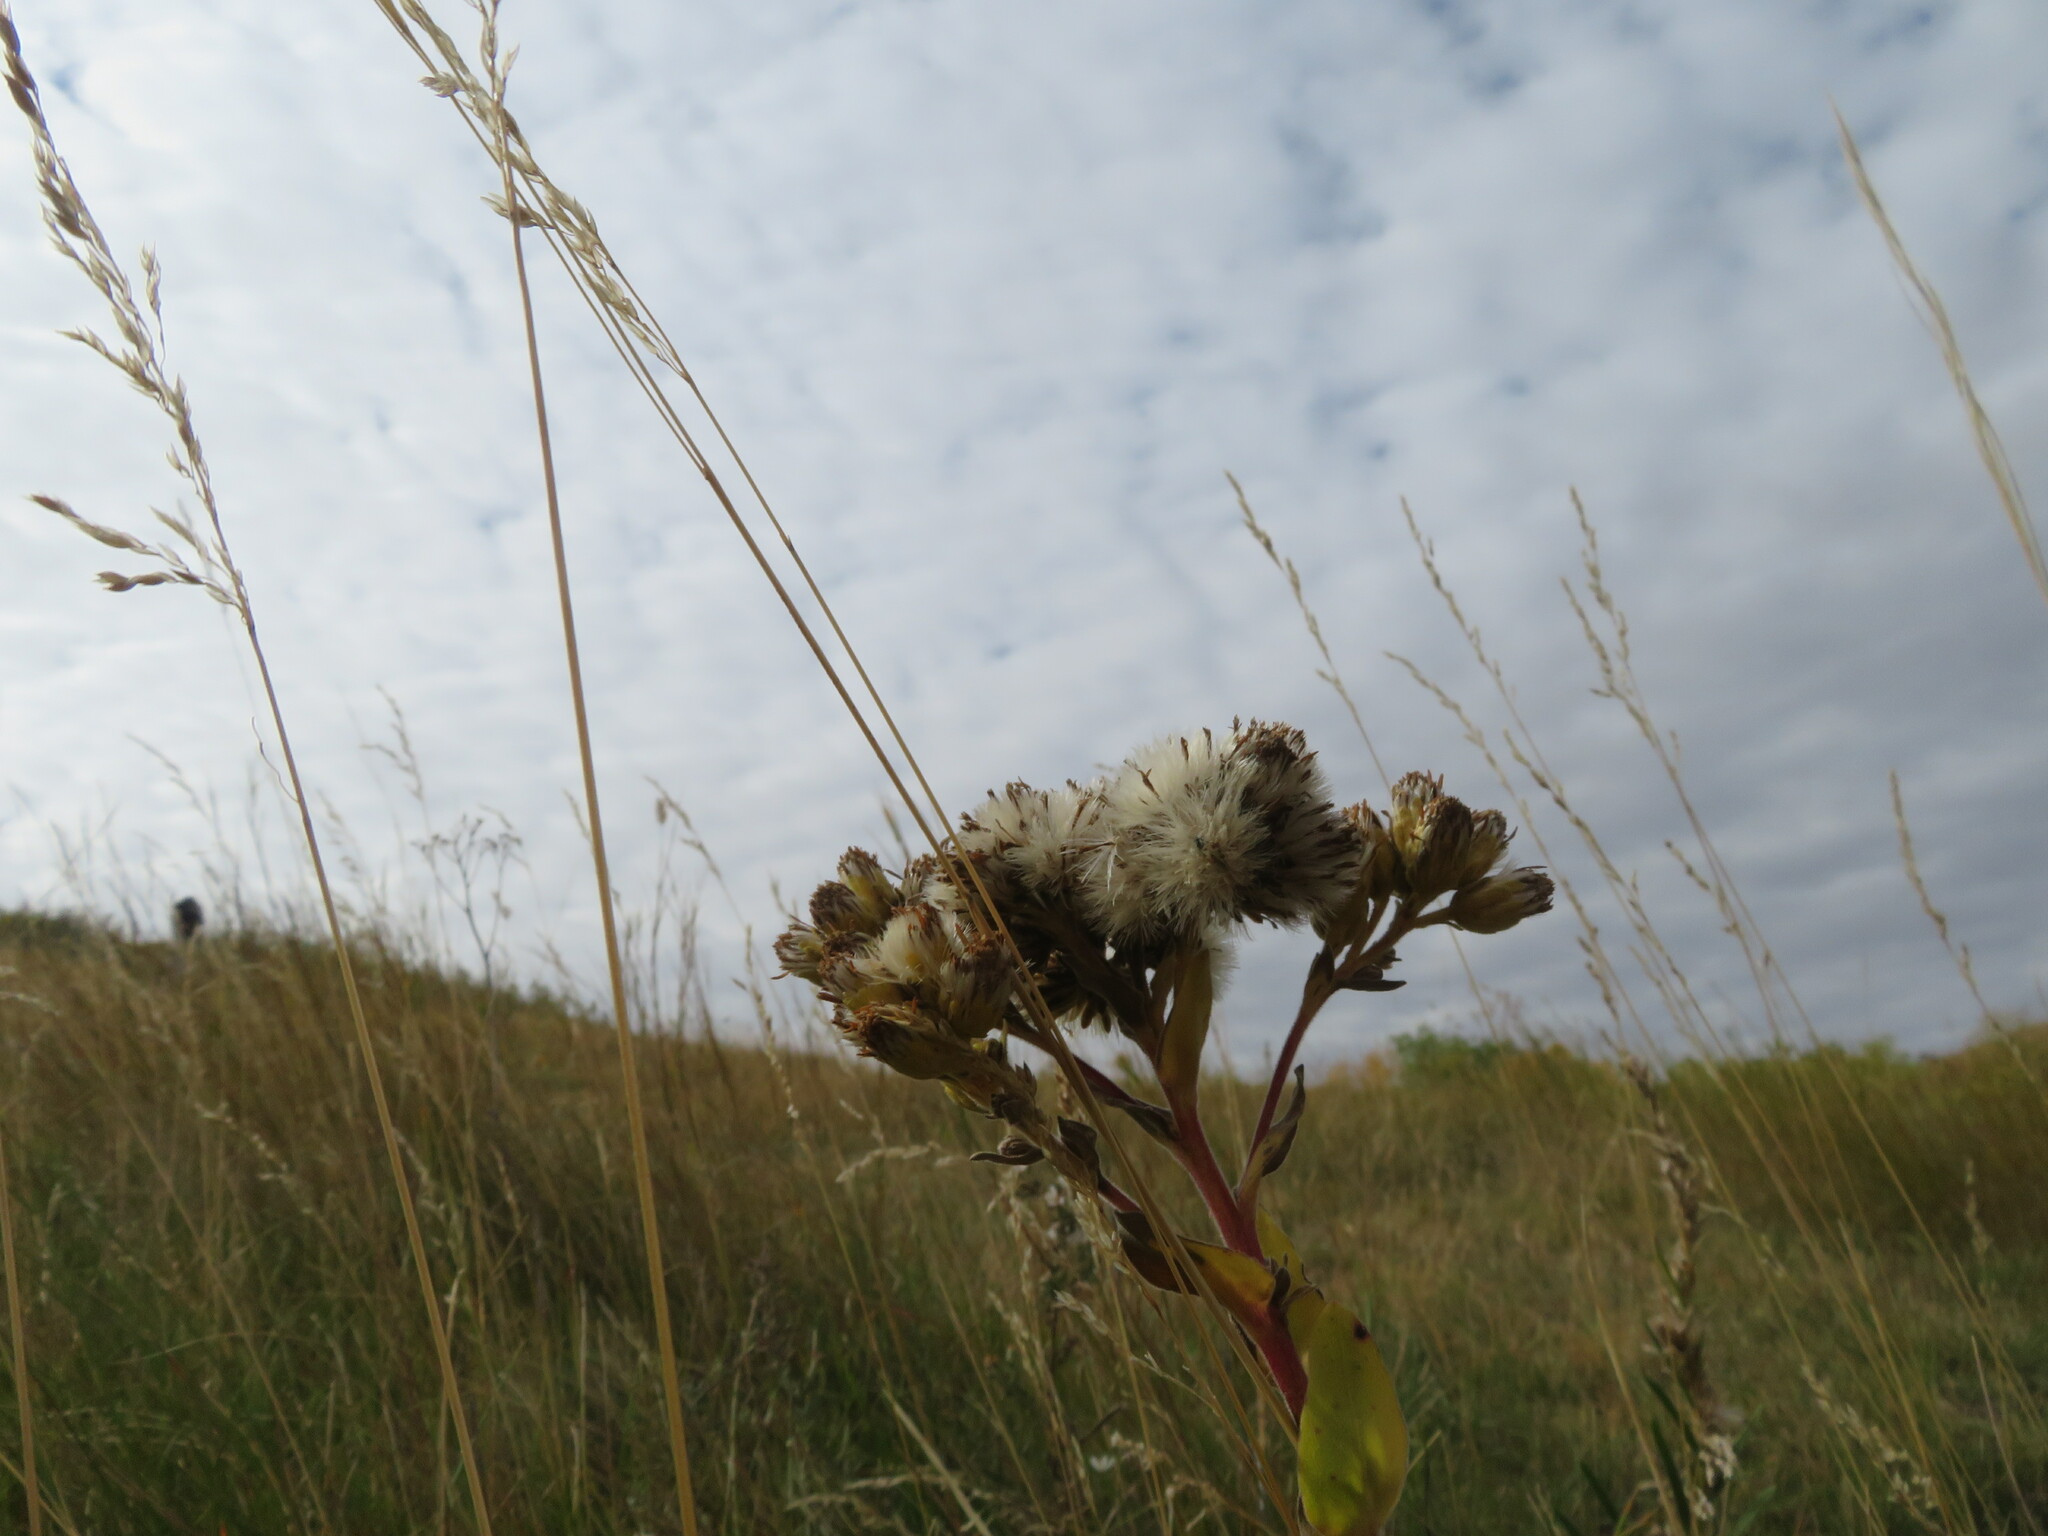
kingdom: Plantae
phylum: Tracheophyta
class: Magnoliopsida
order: Asterales
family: Asteraceae
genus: Solidago
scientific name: Solidago rigida
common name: Rigid goldenrod
